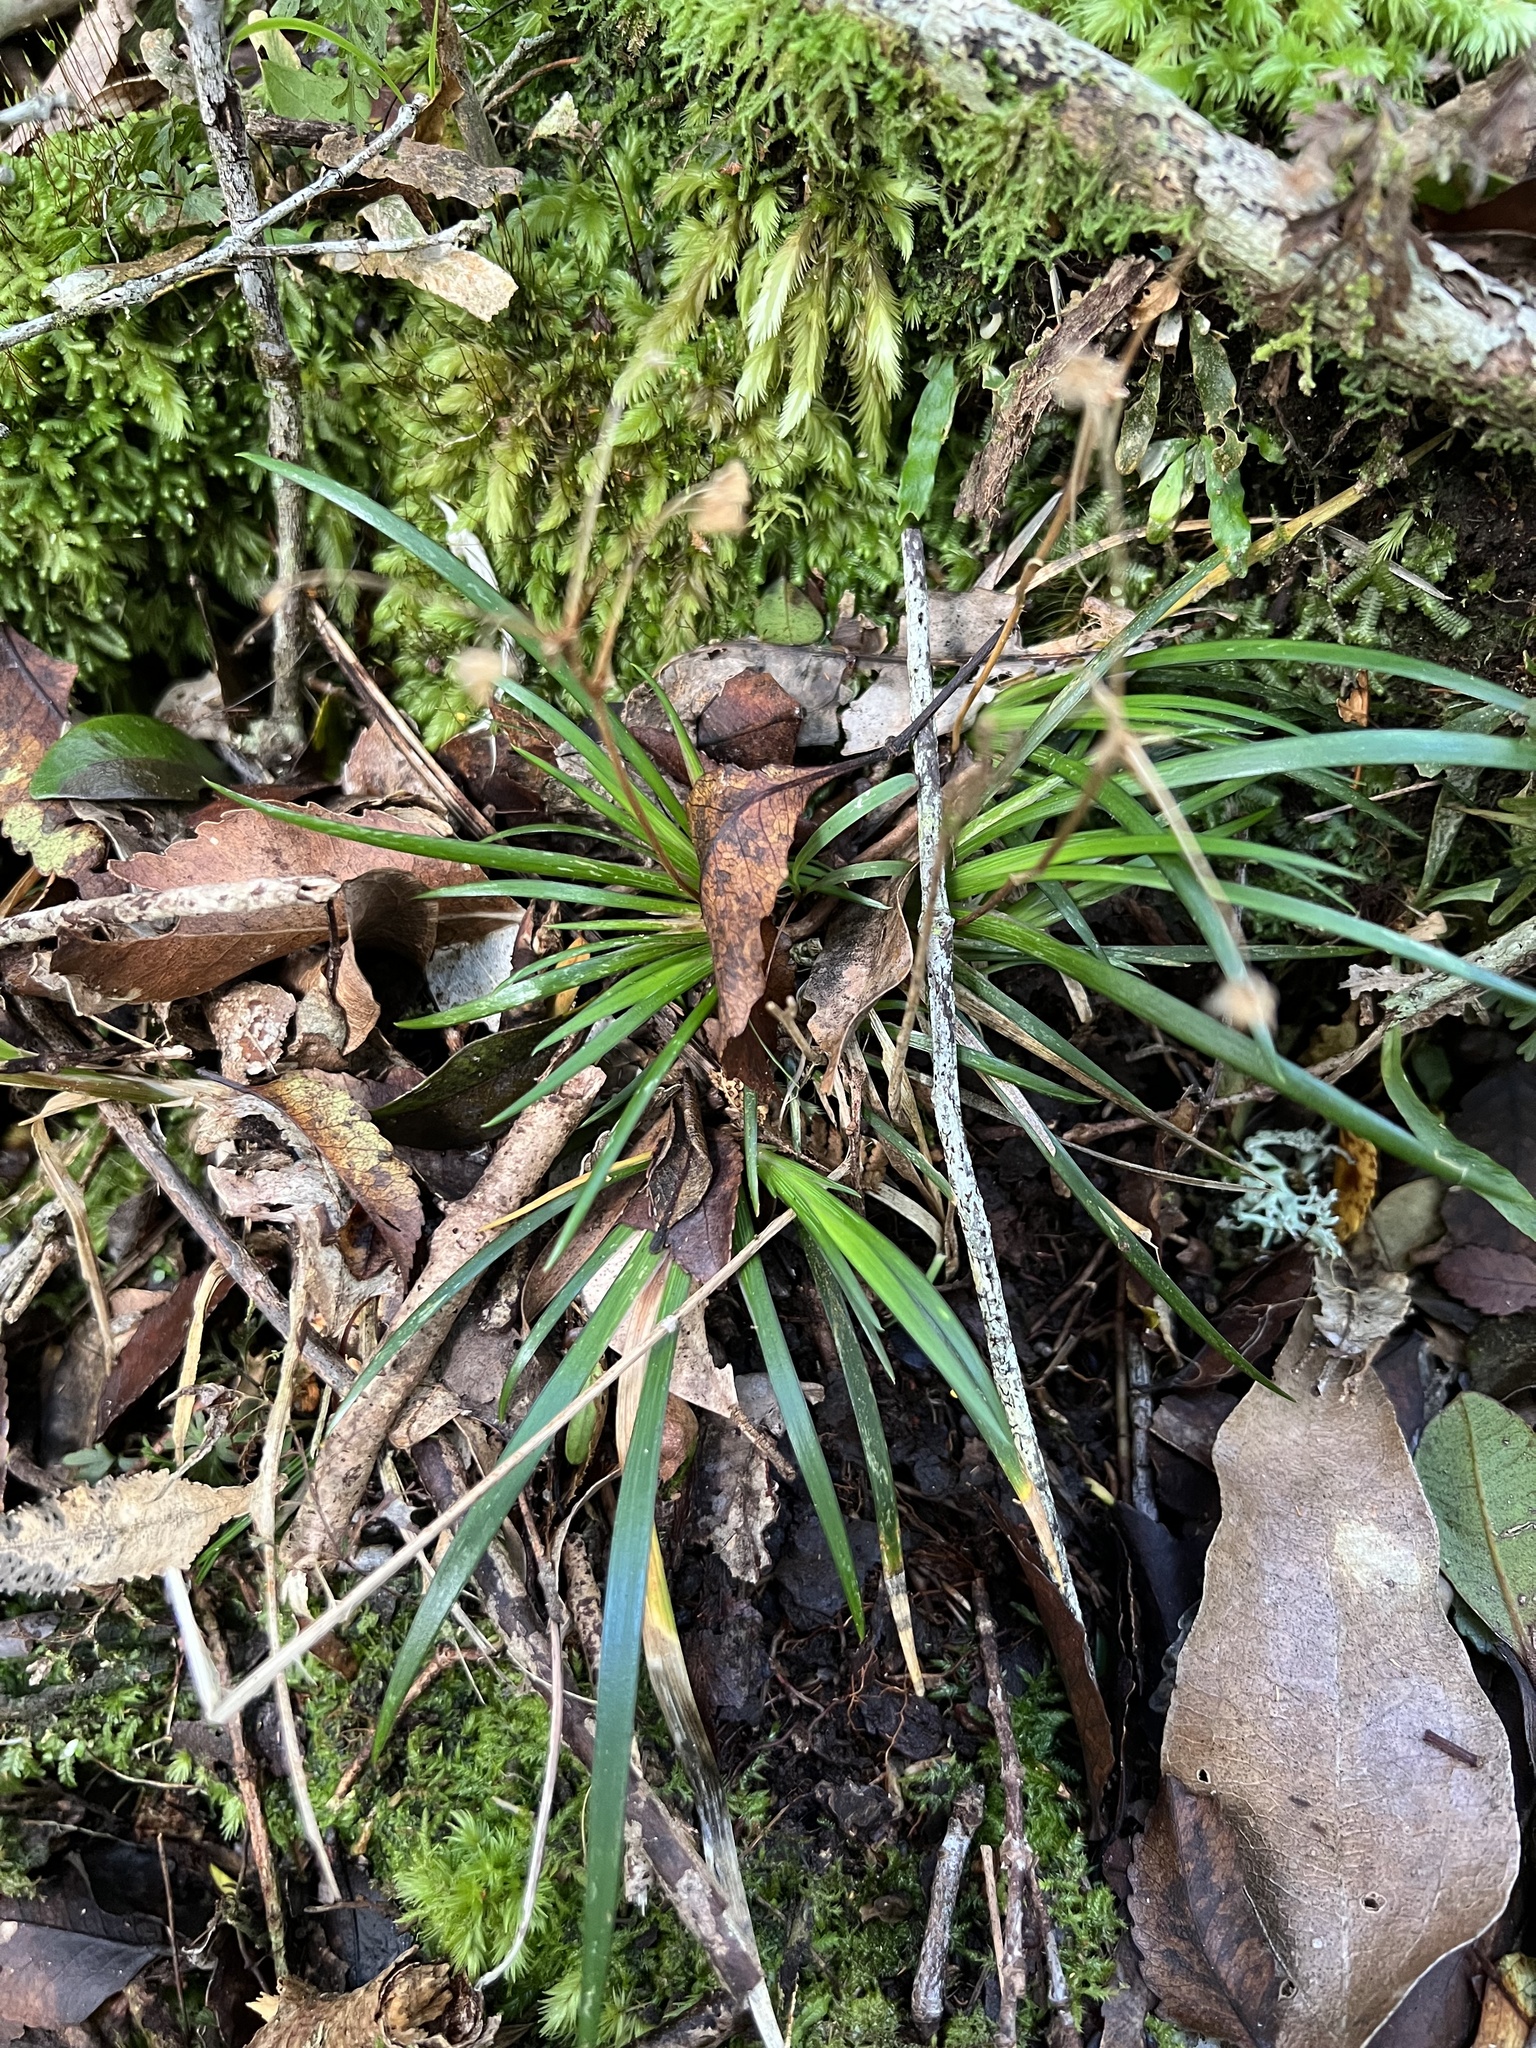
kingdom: Plantae
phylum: Tracheophyta
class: Liliopsida
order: Asparagales
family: Iridaceae
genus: Libertia
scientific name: Libertia micrantha
